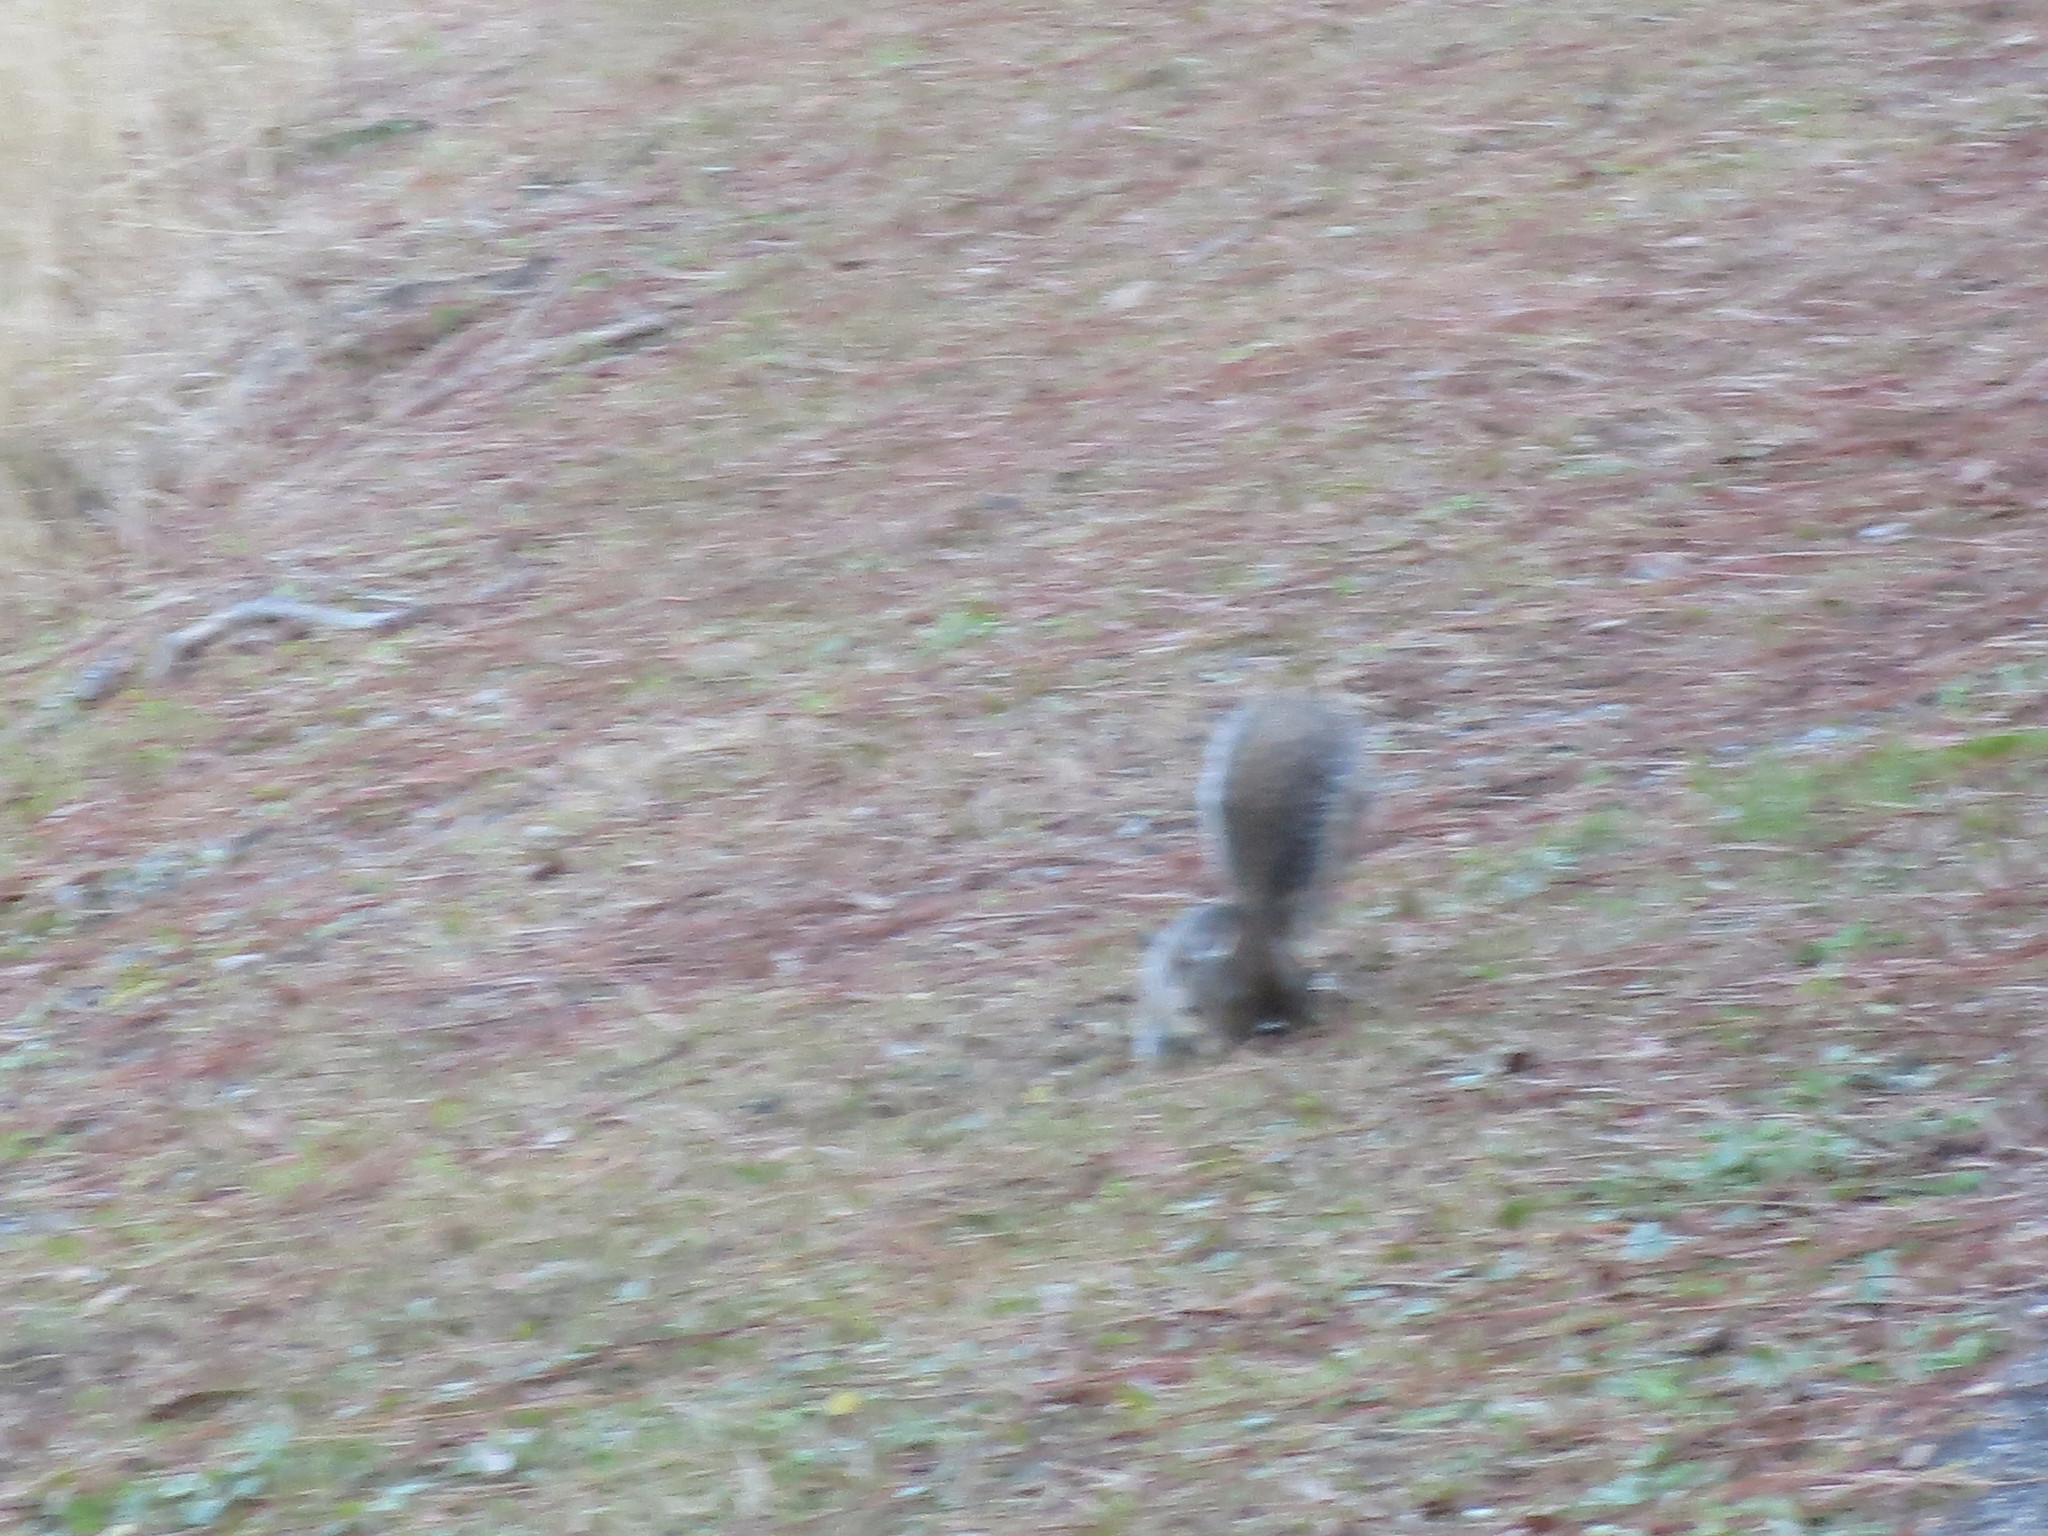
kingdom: Animalia
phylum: Chordata
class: Mammalia
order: Rodentia
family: Sciuridae
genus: Sciurus
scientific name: Sciurus carolinensis
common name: Eastern gray squirrel
